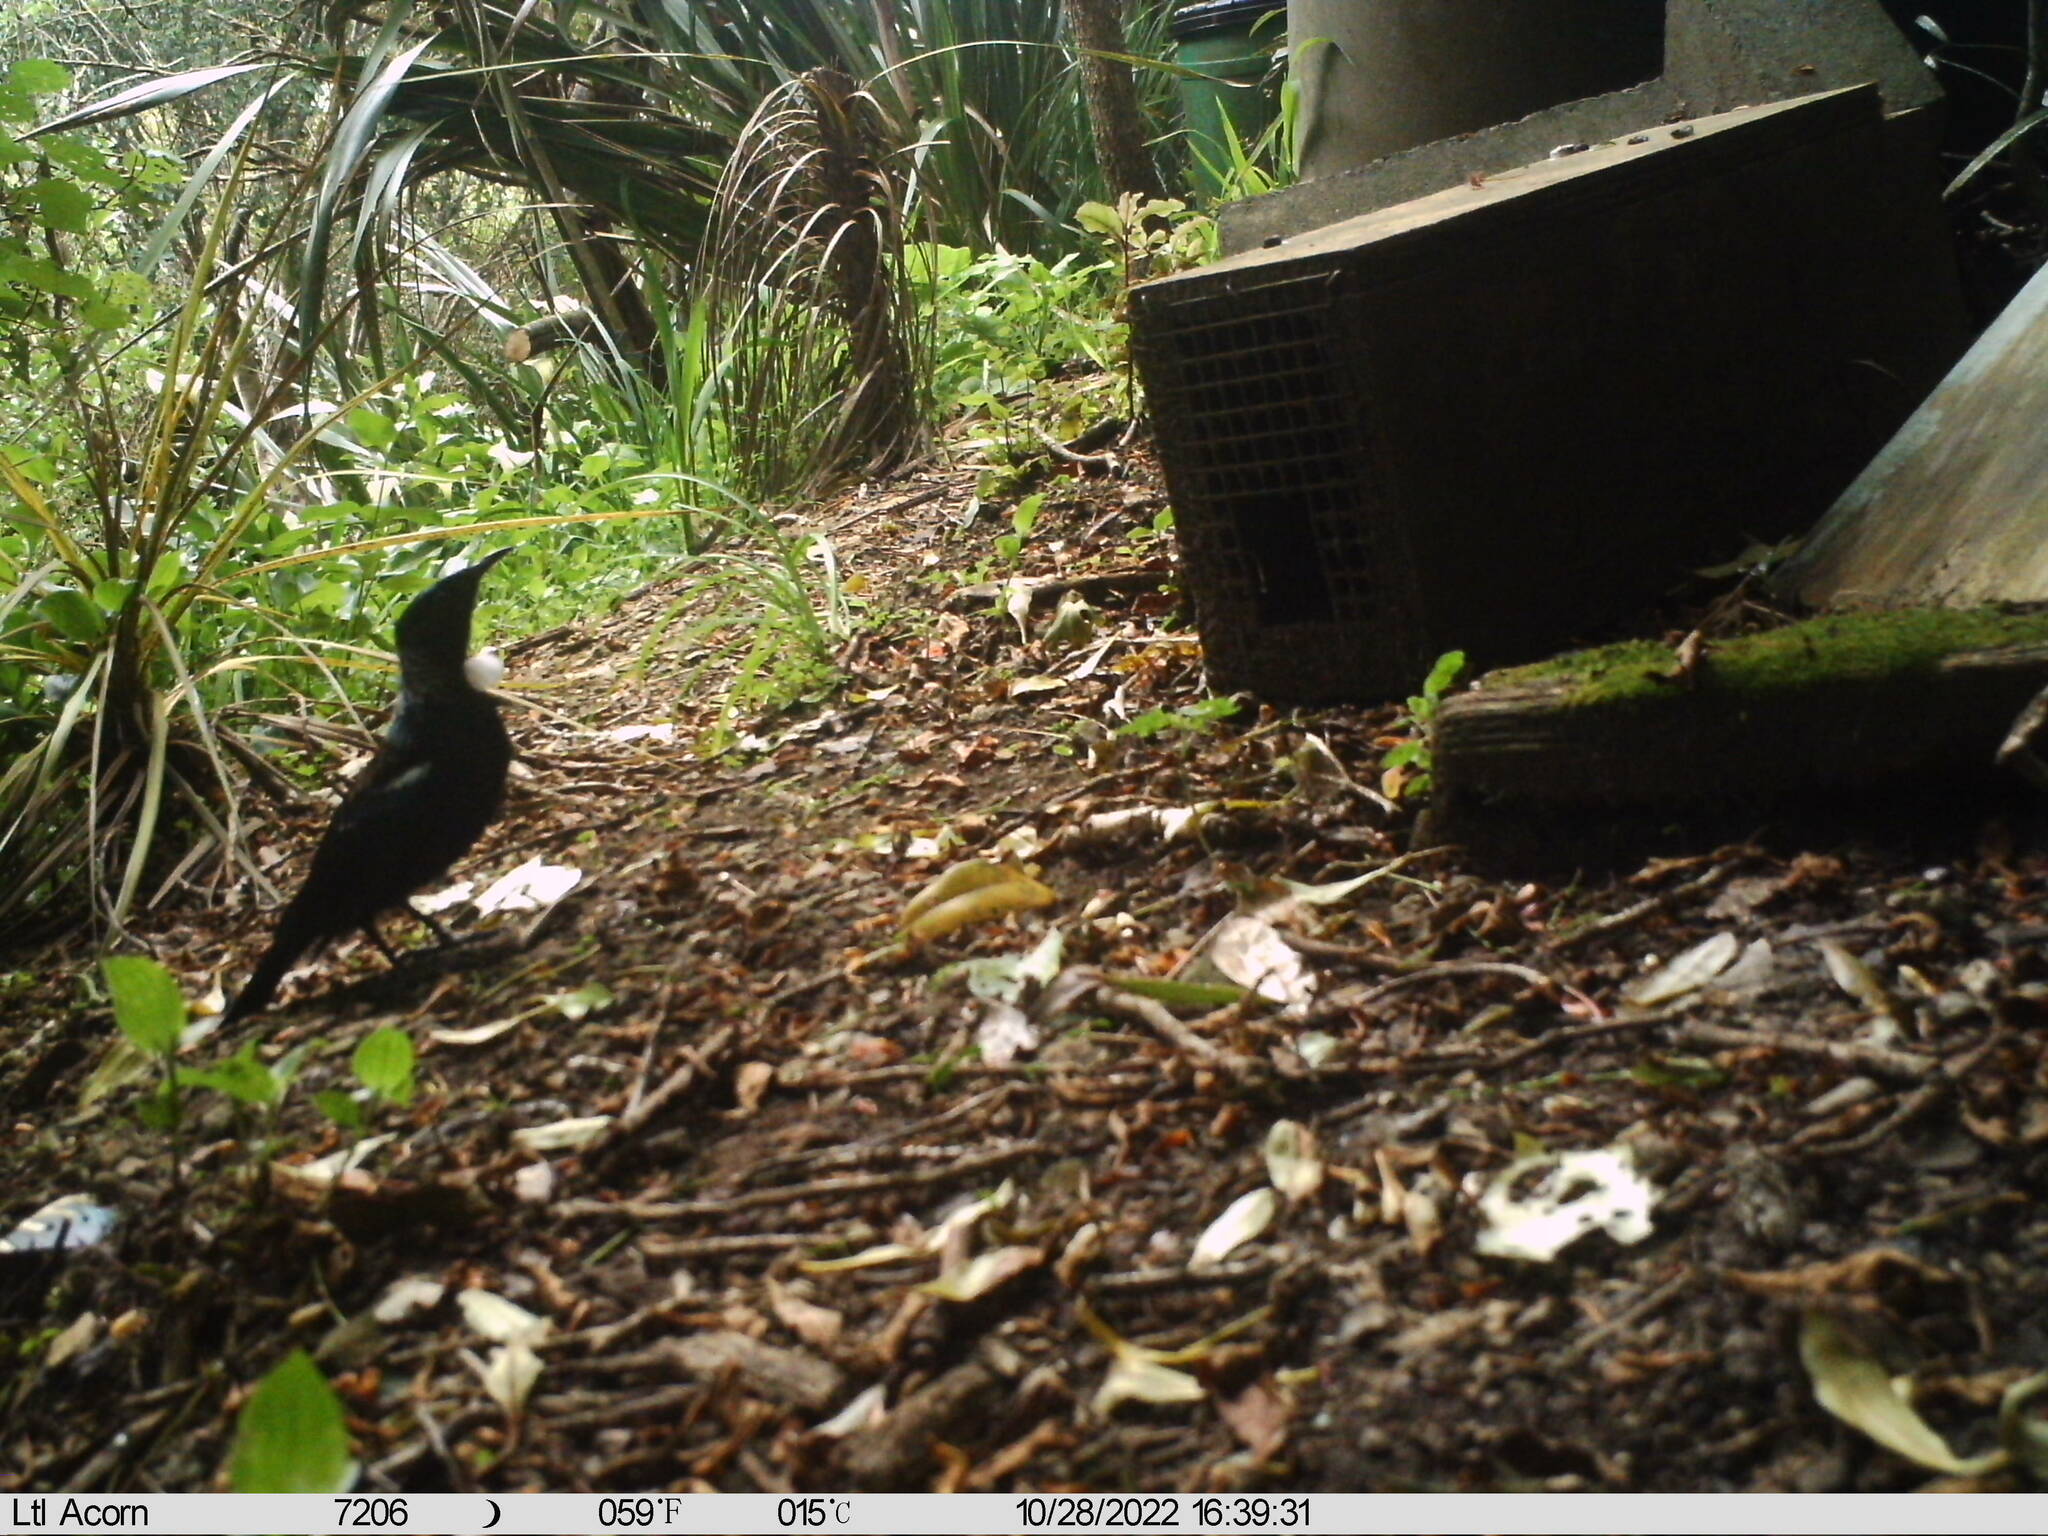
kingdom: Animalia
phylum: Chordata
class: Aves
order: Passeriformes
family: Meliphagidae
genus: Prosthemadera
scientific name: Prosthemadera novaeseelandiae
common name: Tui
